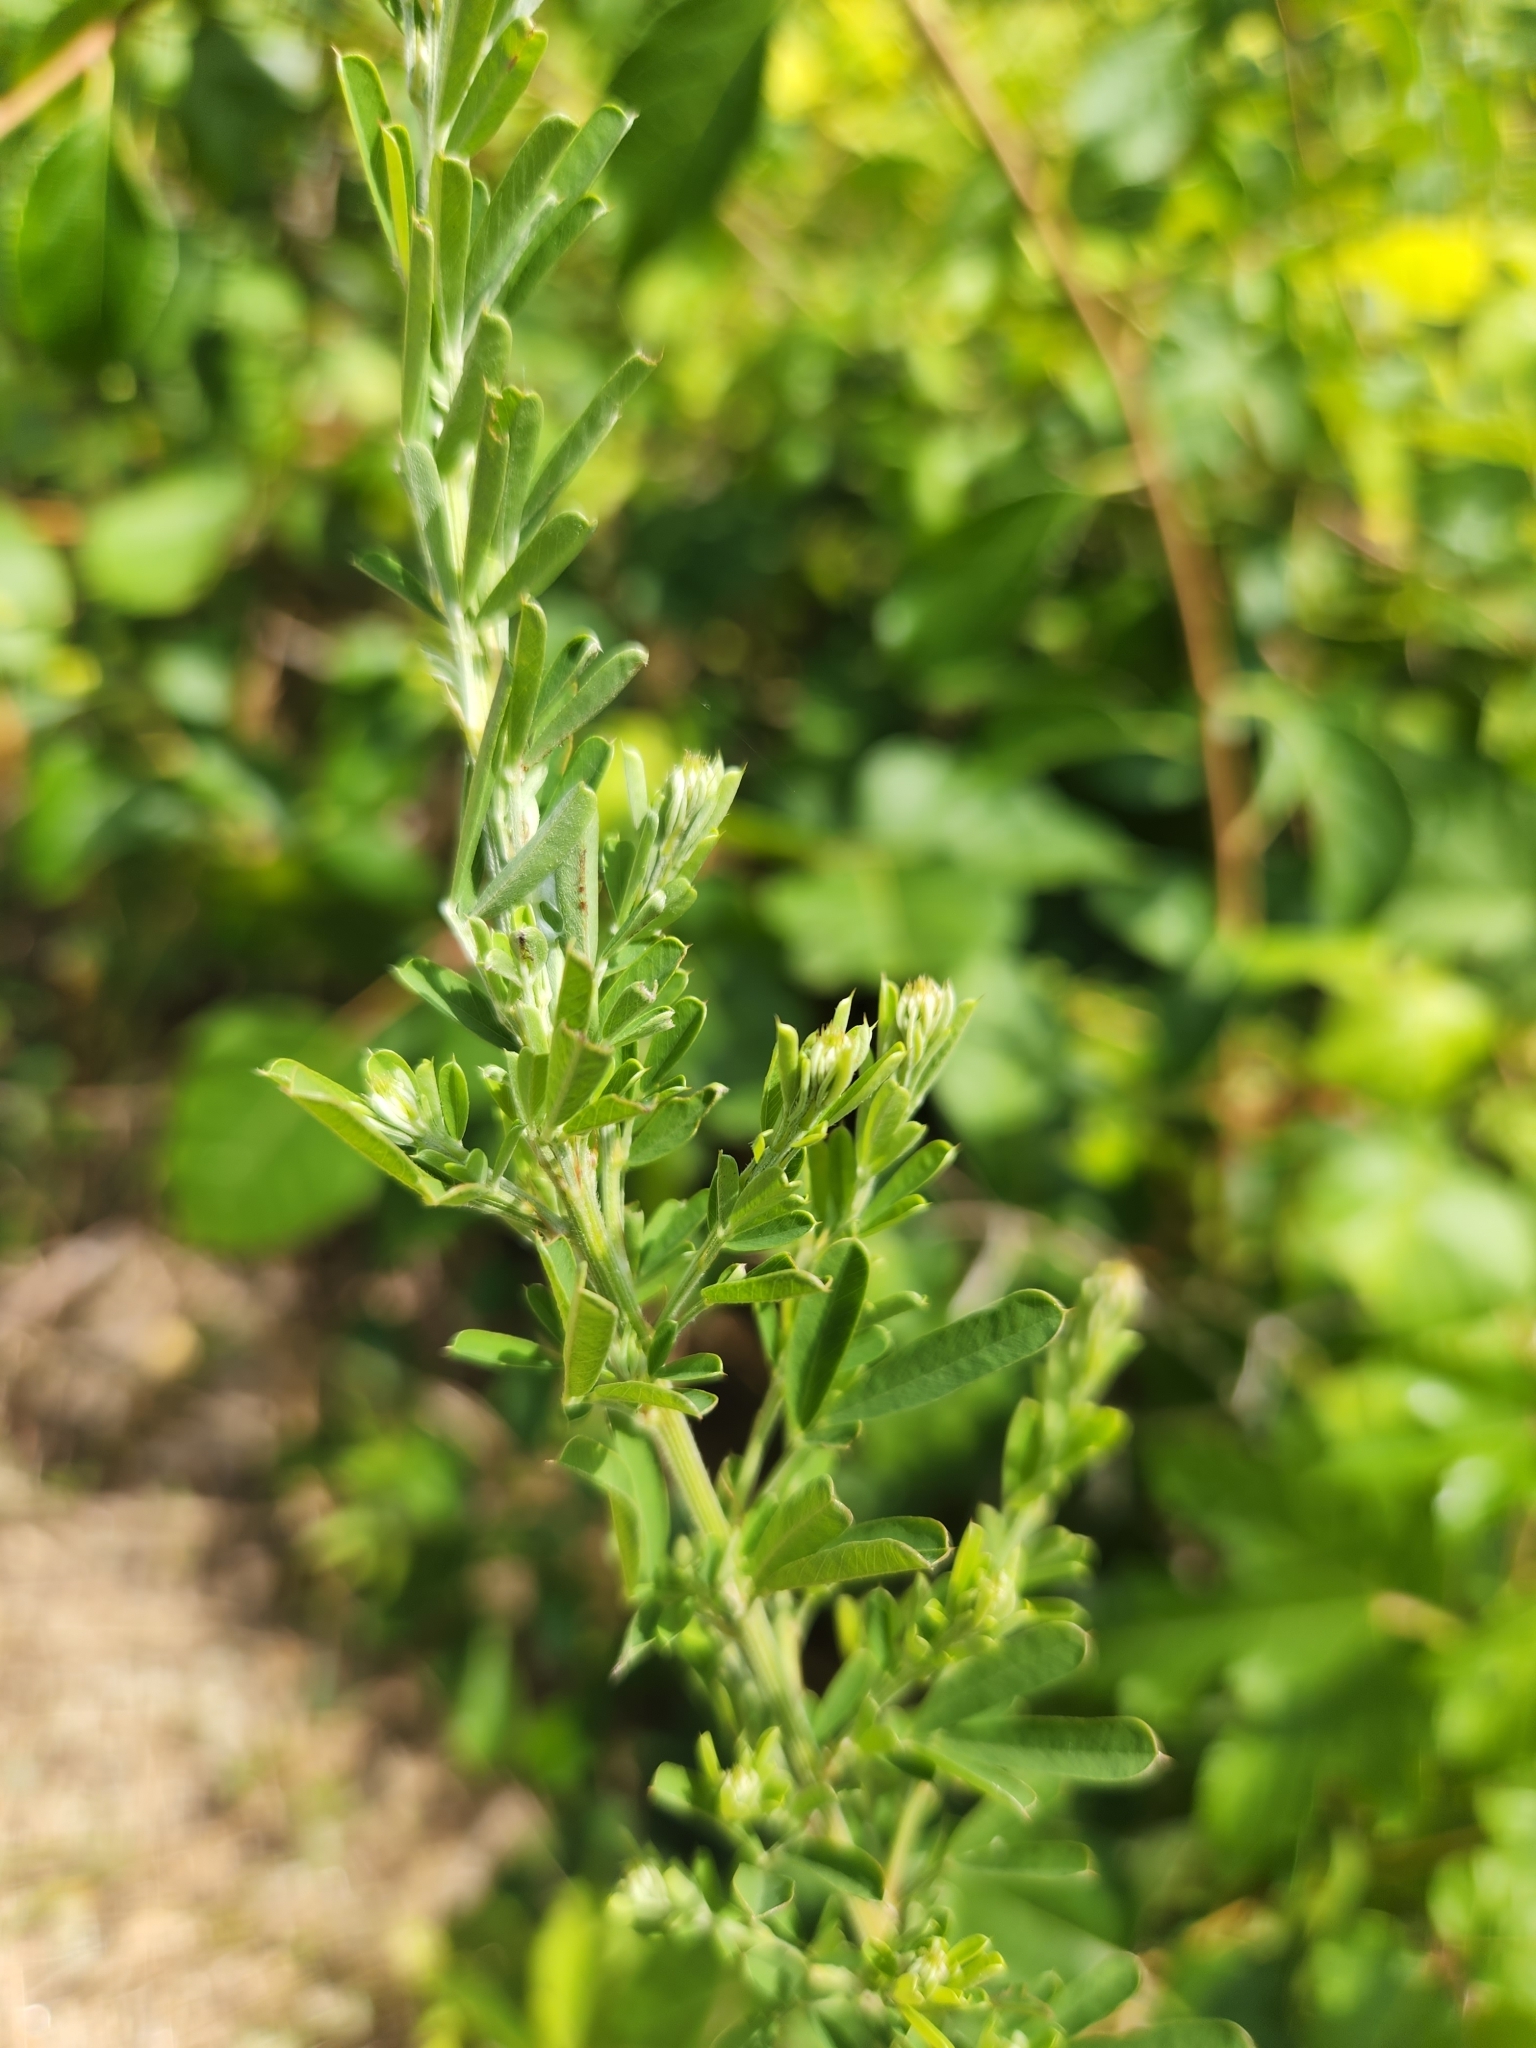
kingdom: Plantae
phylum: Tracheophyta
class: Magnoliopsida
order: Fabales
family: Fabaceae
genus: Lespedeza
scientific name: Lespedeza cuneata
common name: Chinese bush-clover
